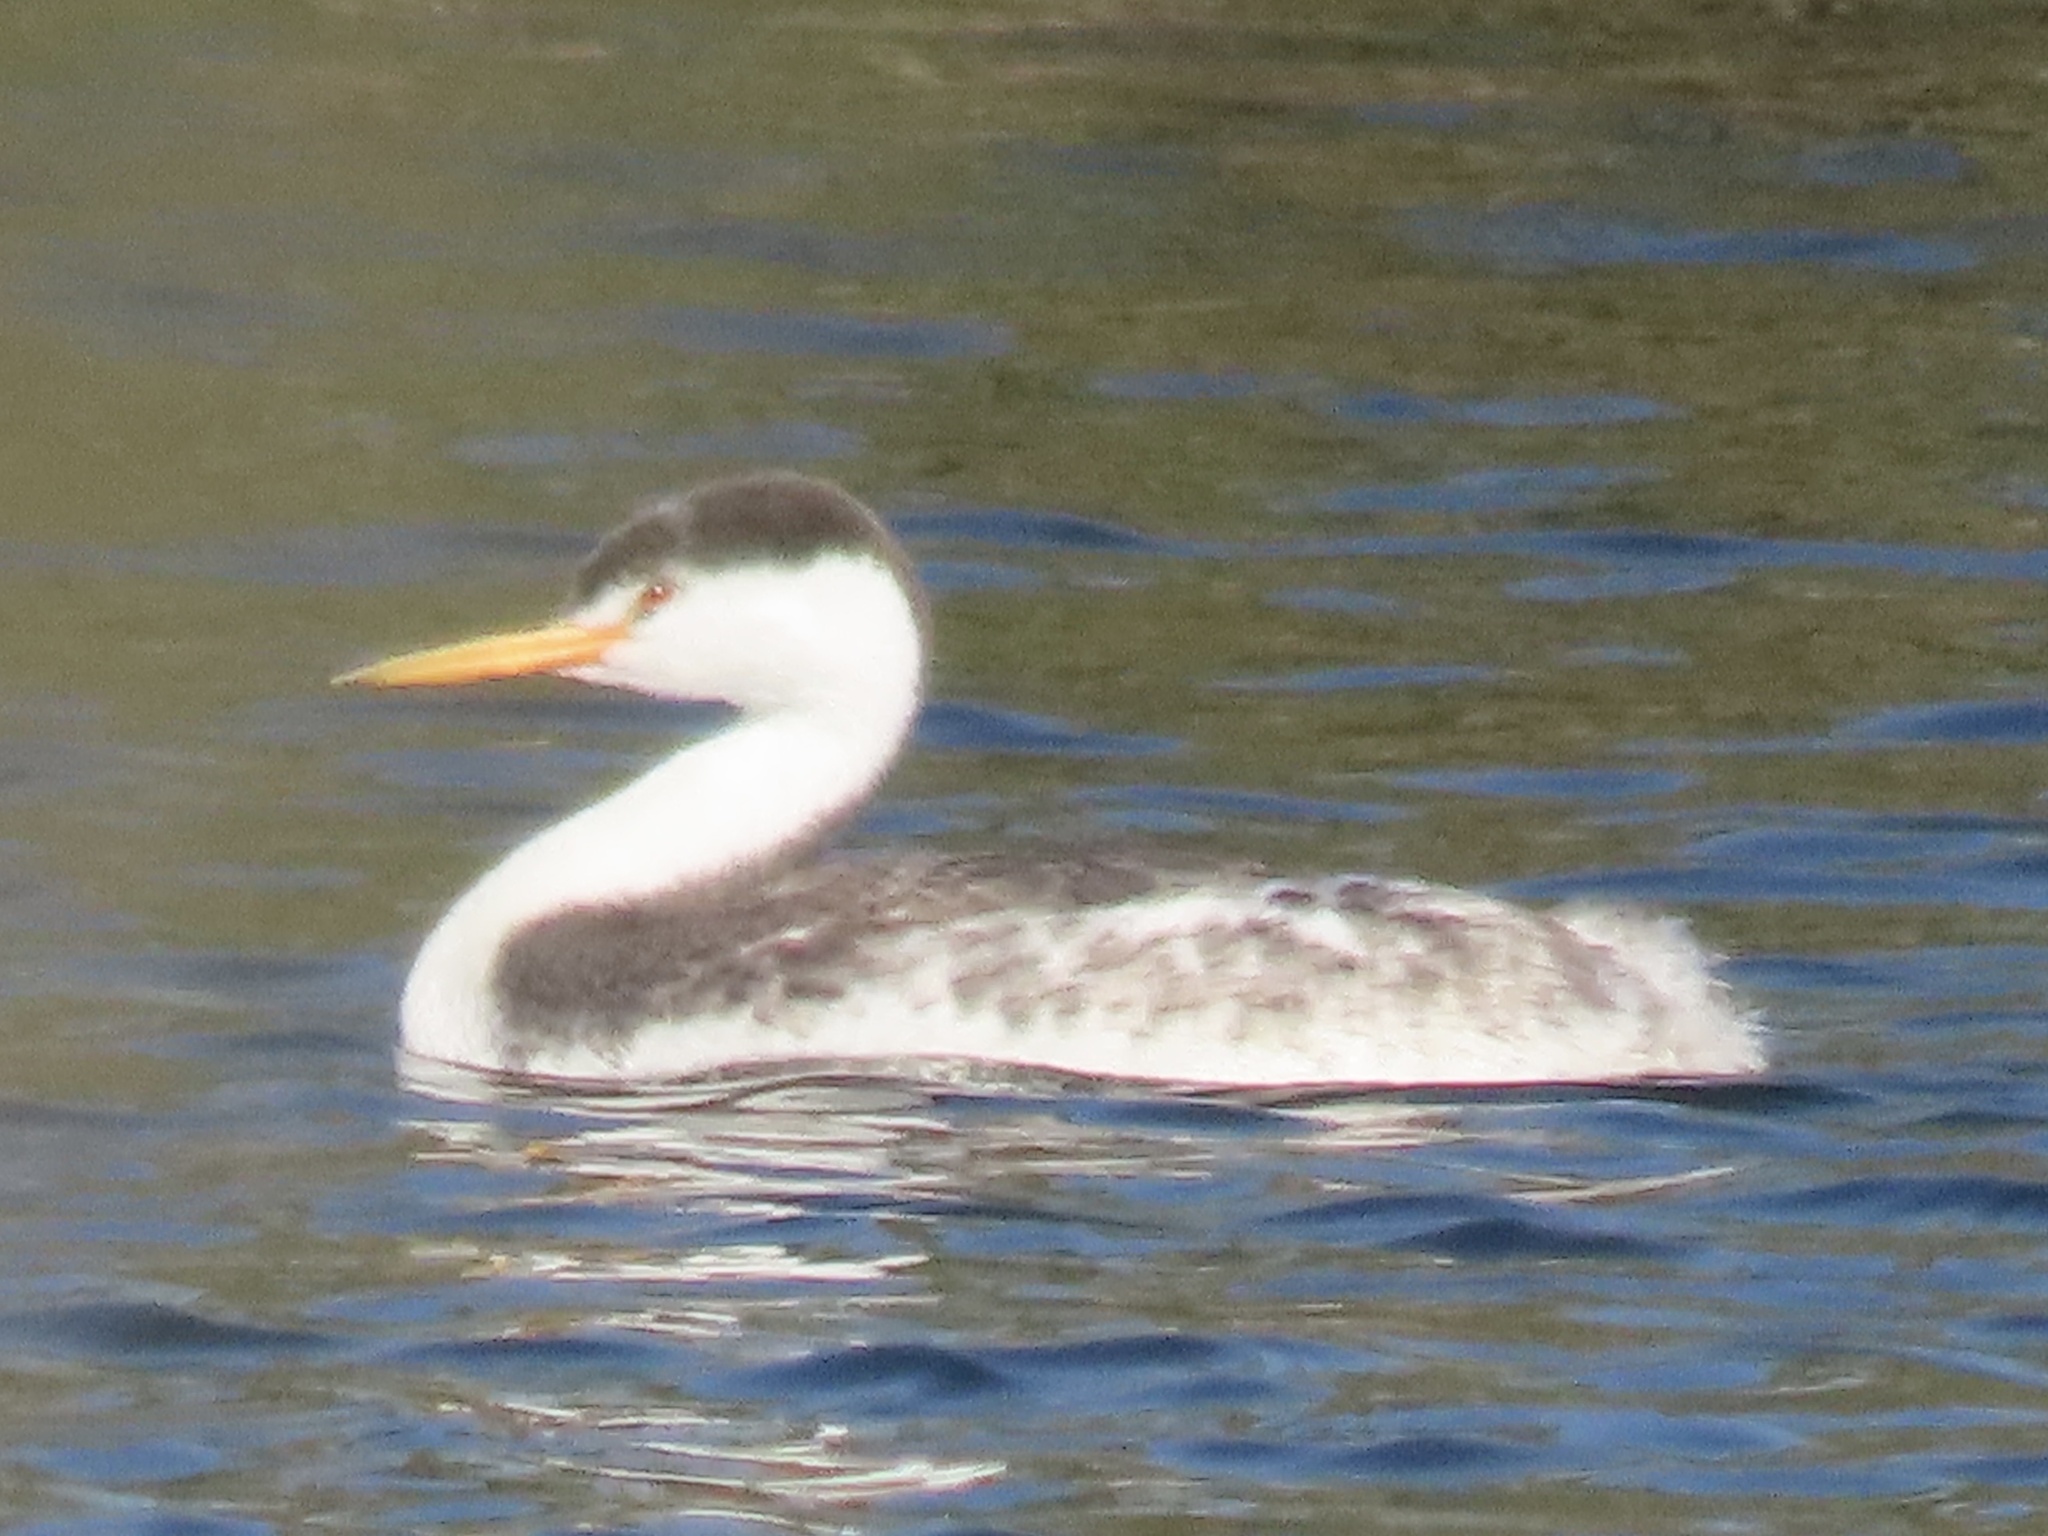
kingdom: Animalia
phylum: Chordata
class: Aves
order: Podicipediformes
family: Podicipedidae
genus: Aechmophorus
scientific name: Aechmophorus clarkii
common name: Clark's grebe
